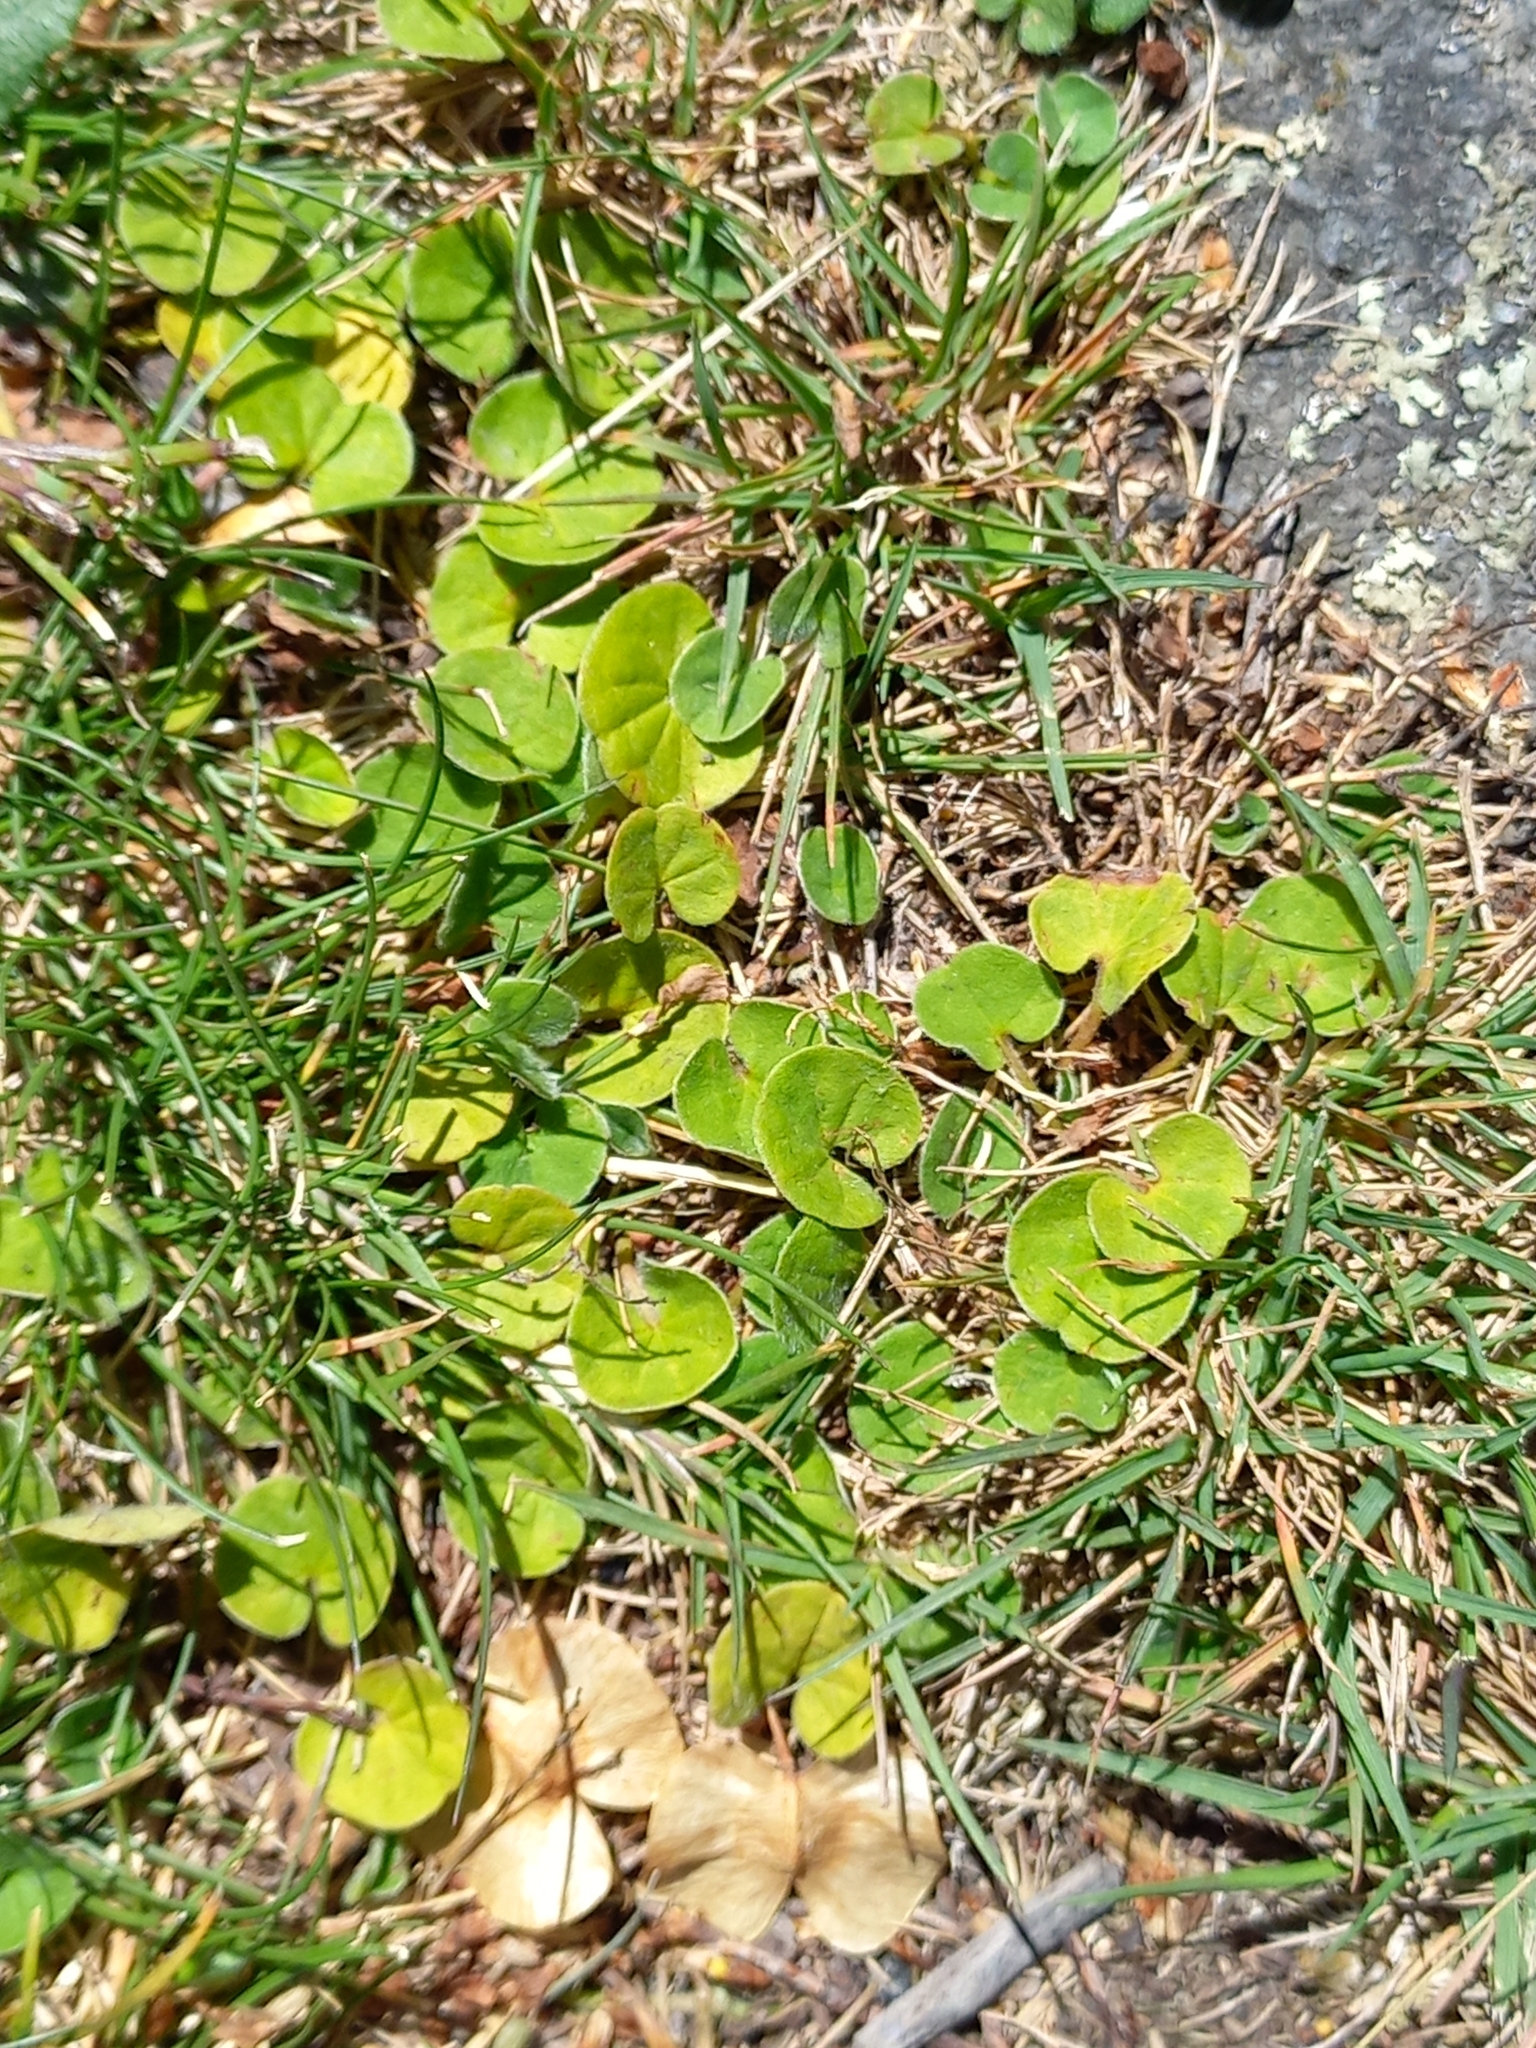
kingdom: Plantae
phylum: Tracheophyta
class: Magnoliopsida
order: Solanales
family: Convolvulaceae
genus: Dichondra
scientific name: Dichondra repens
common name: Kidneyweed
